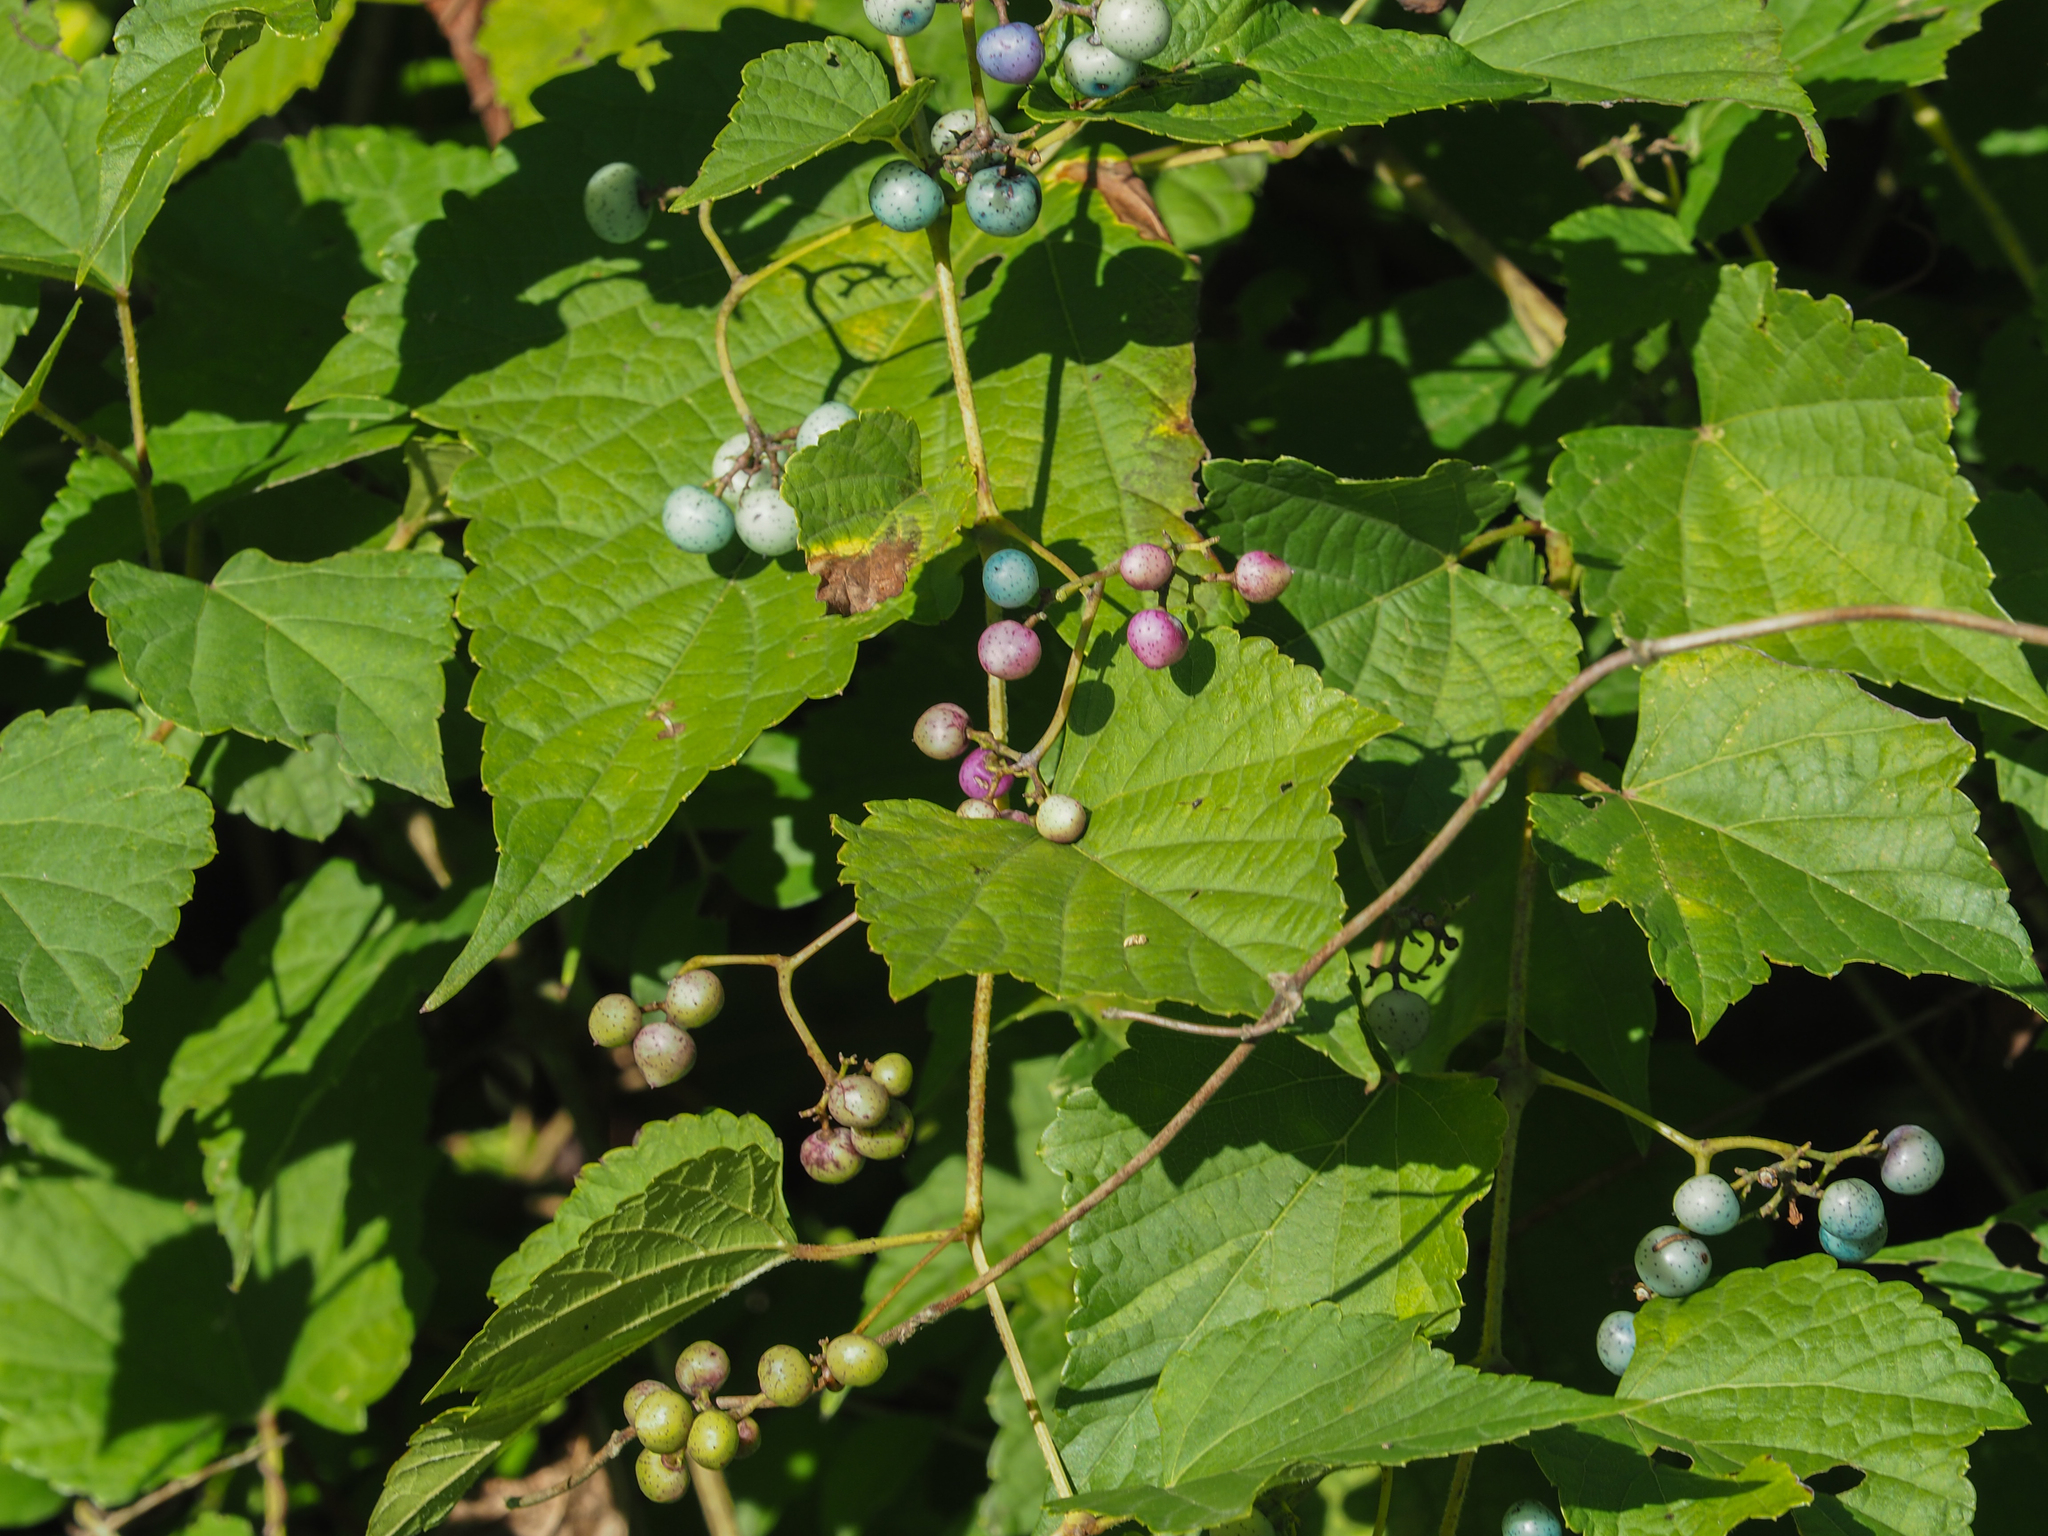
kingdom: Plantae
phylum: Tracheophyta
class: Magnoliopsida
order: Vitales
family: Vitaceae
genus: Ampelopsis
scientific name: Ampelopsis glandulosa
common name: Amur peppervine
